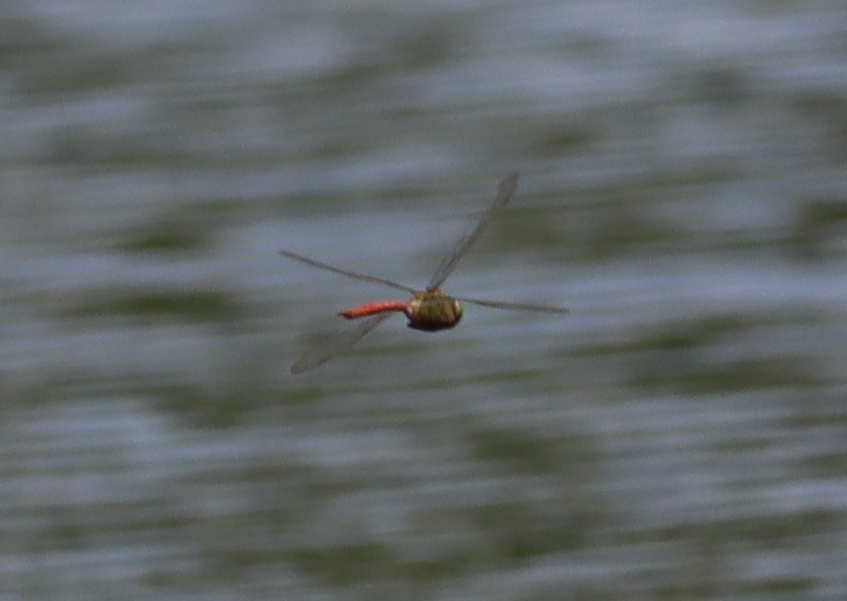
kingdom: Animalia
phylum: Arthropoda
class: Insecta
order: Odonata
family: Aeshnidae
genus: Anax
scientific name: Anax longipes
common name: Comet darner
